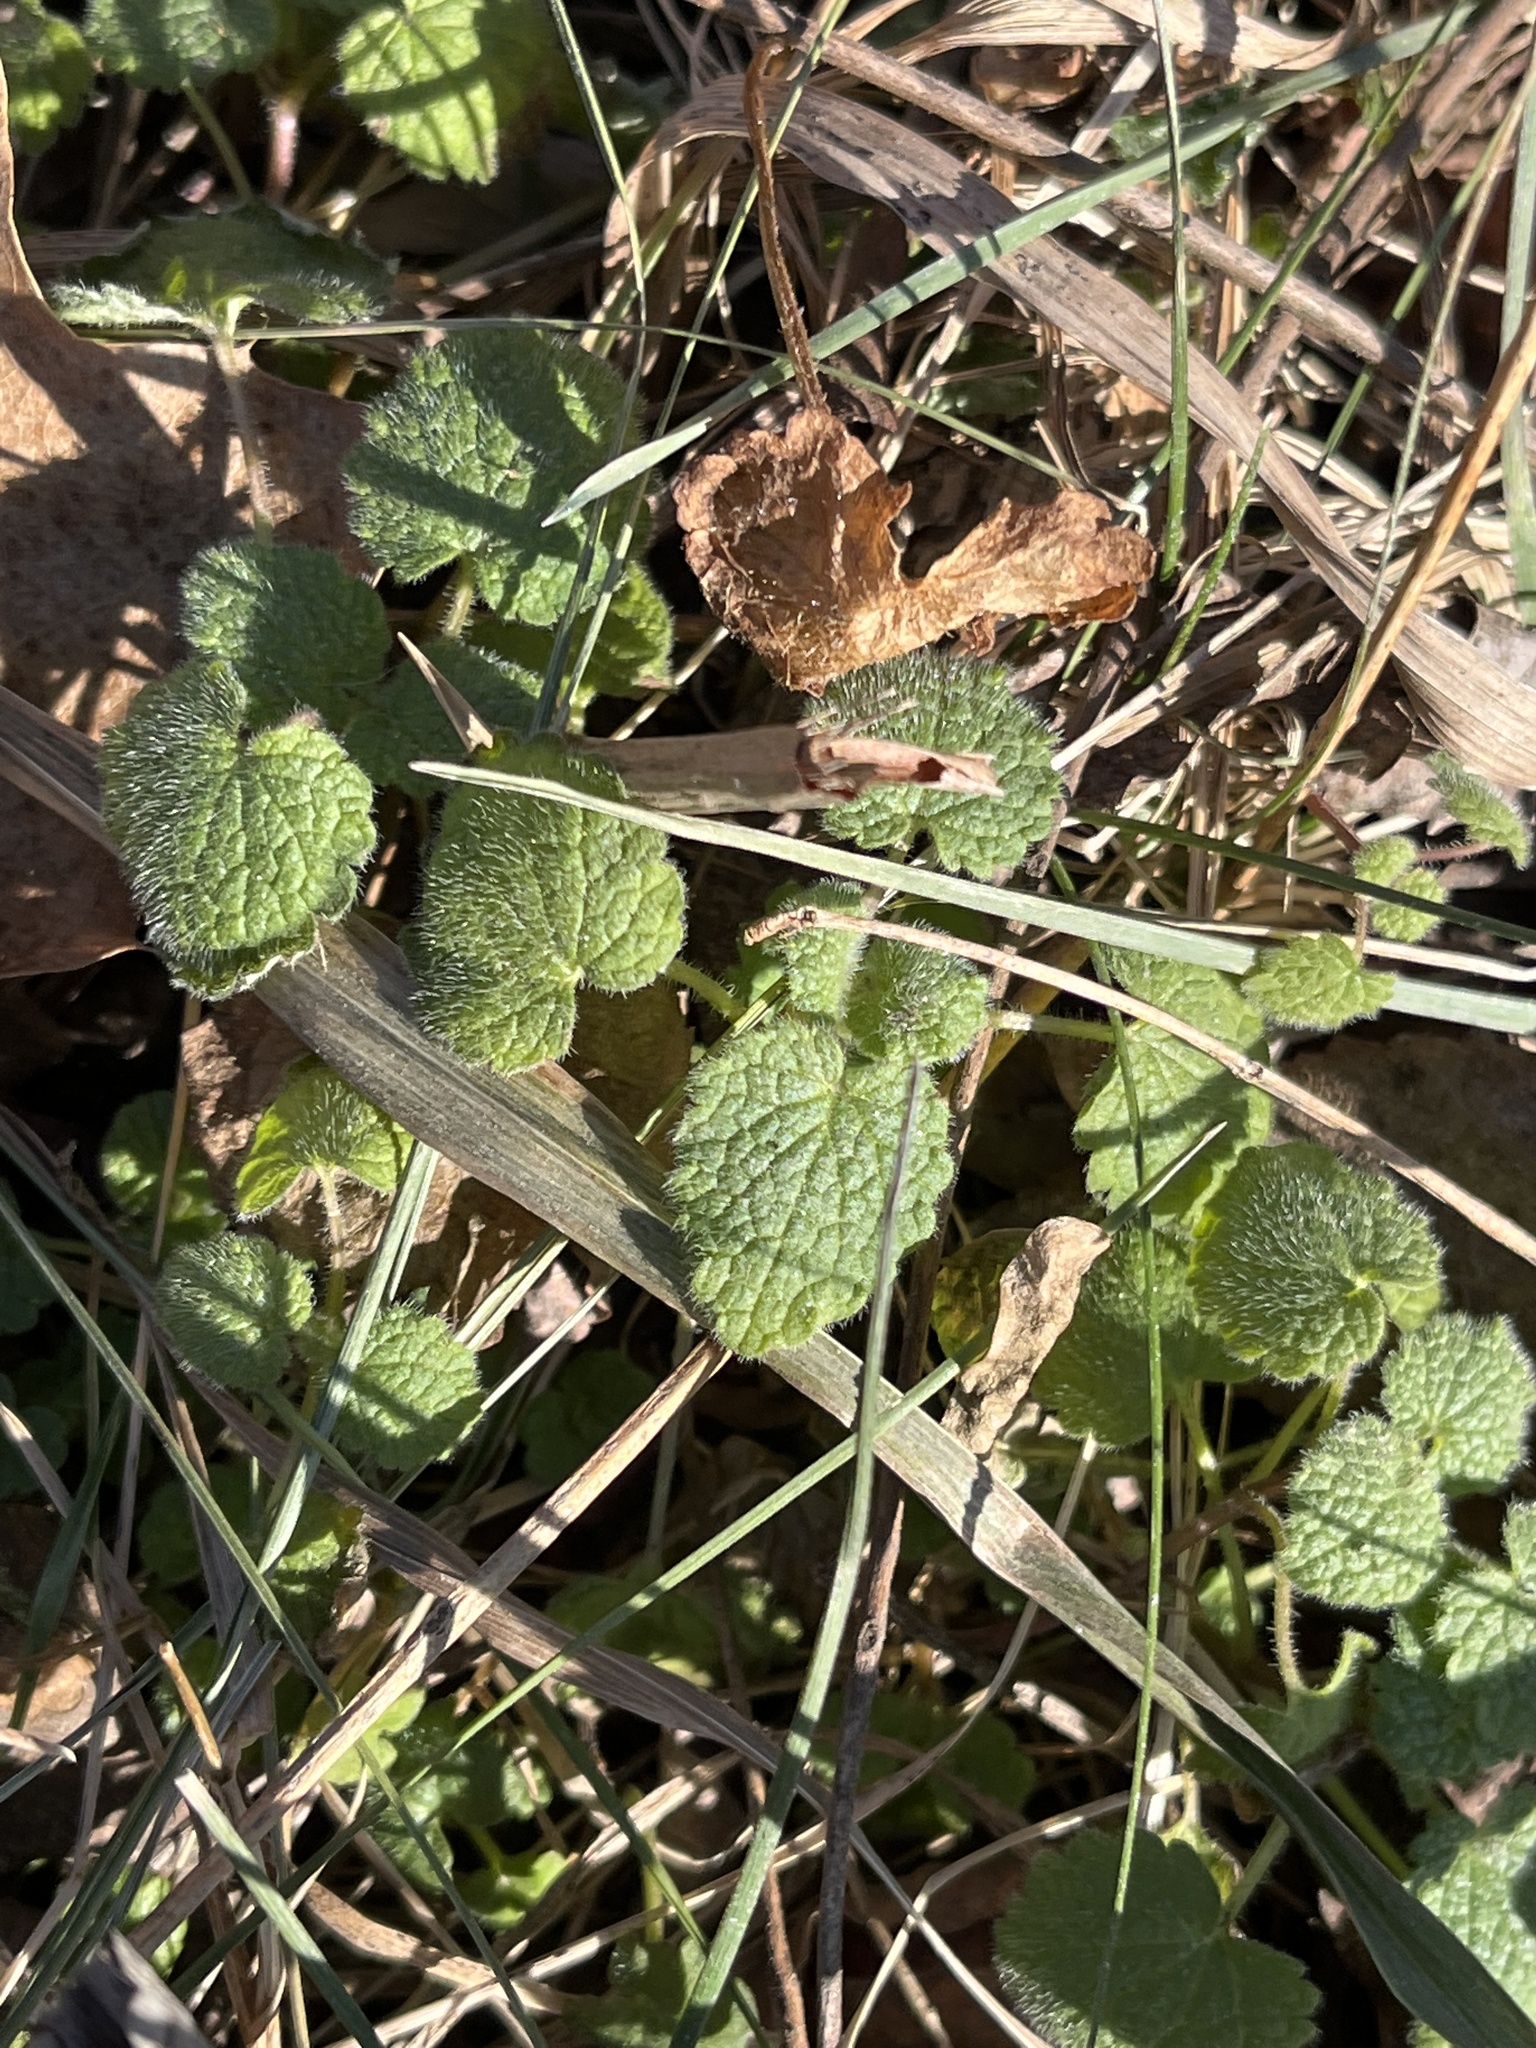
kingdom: Plantae
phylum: Tracheophyta
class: Magnoliopsida
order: Lamiales
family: Lamiaceae
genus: Lamium
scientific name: Lamium purpureum
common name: Red dead-nettle
